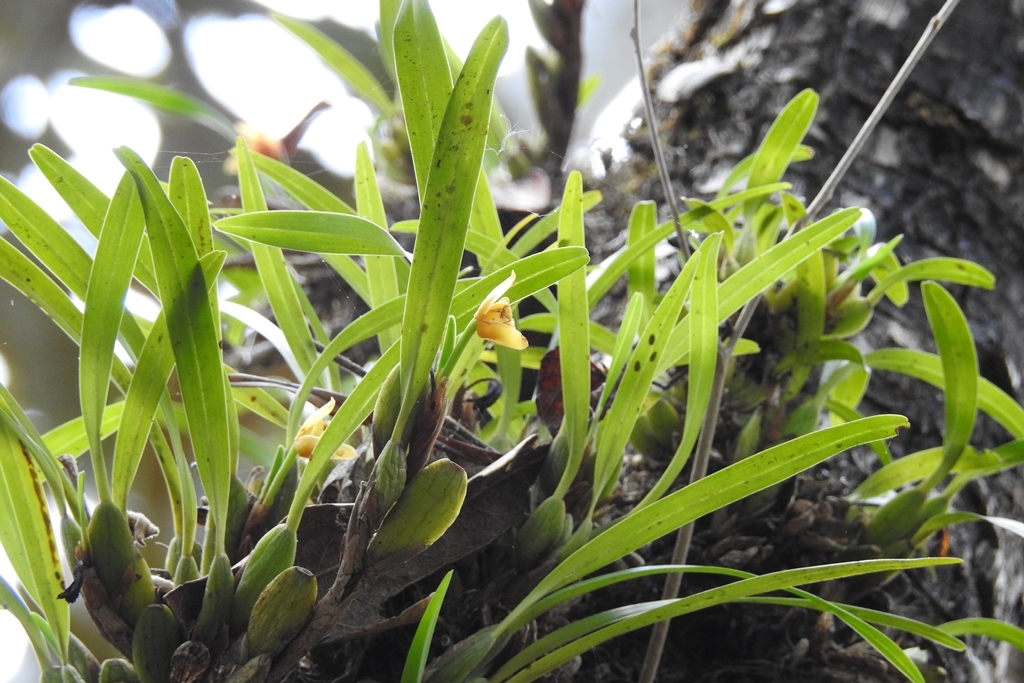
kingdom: Plantae
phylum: Tracheophyta
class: Liliopsida
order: Asparagales
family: Orchidaceae
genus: Maxillaria
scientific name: Maxillaria variabilis
